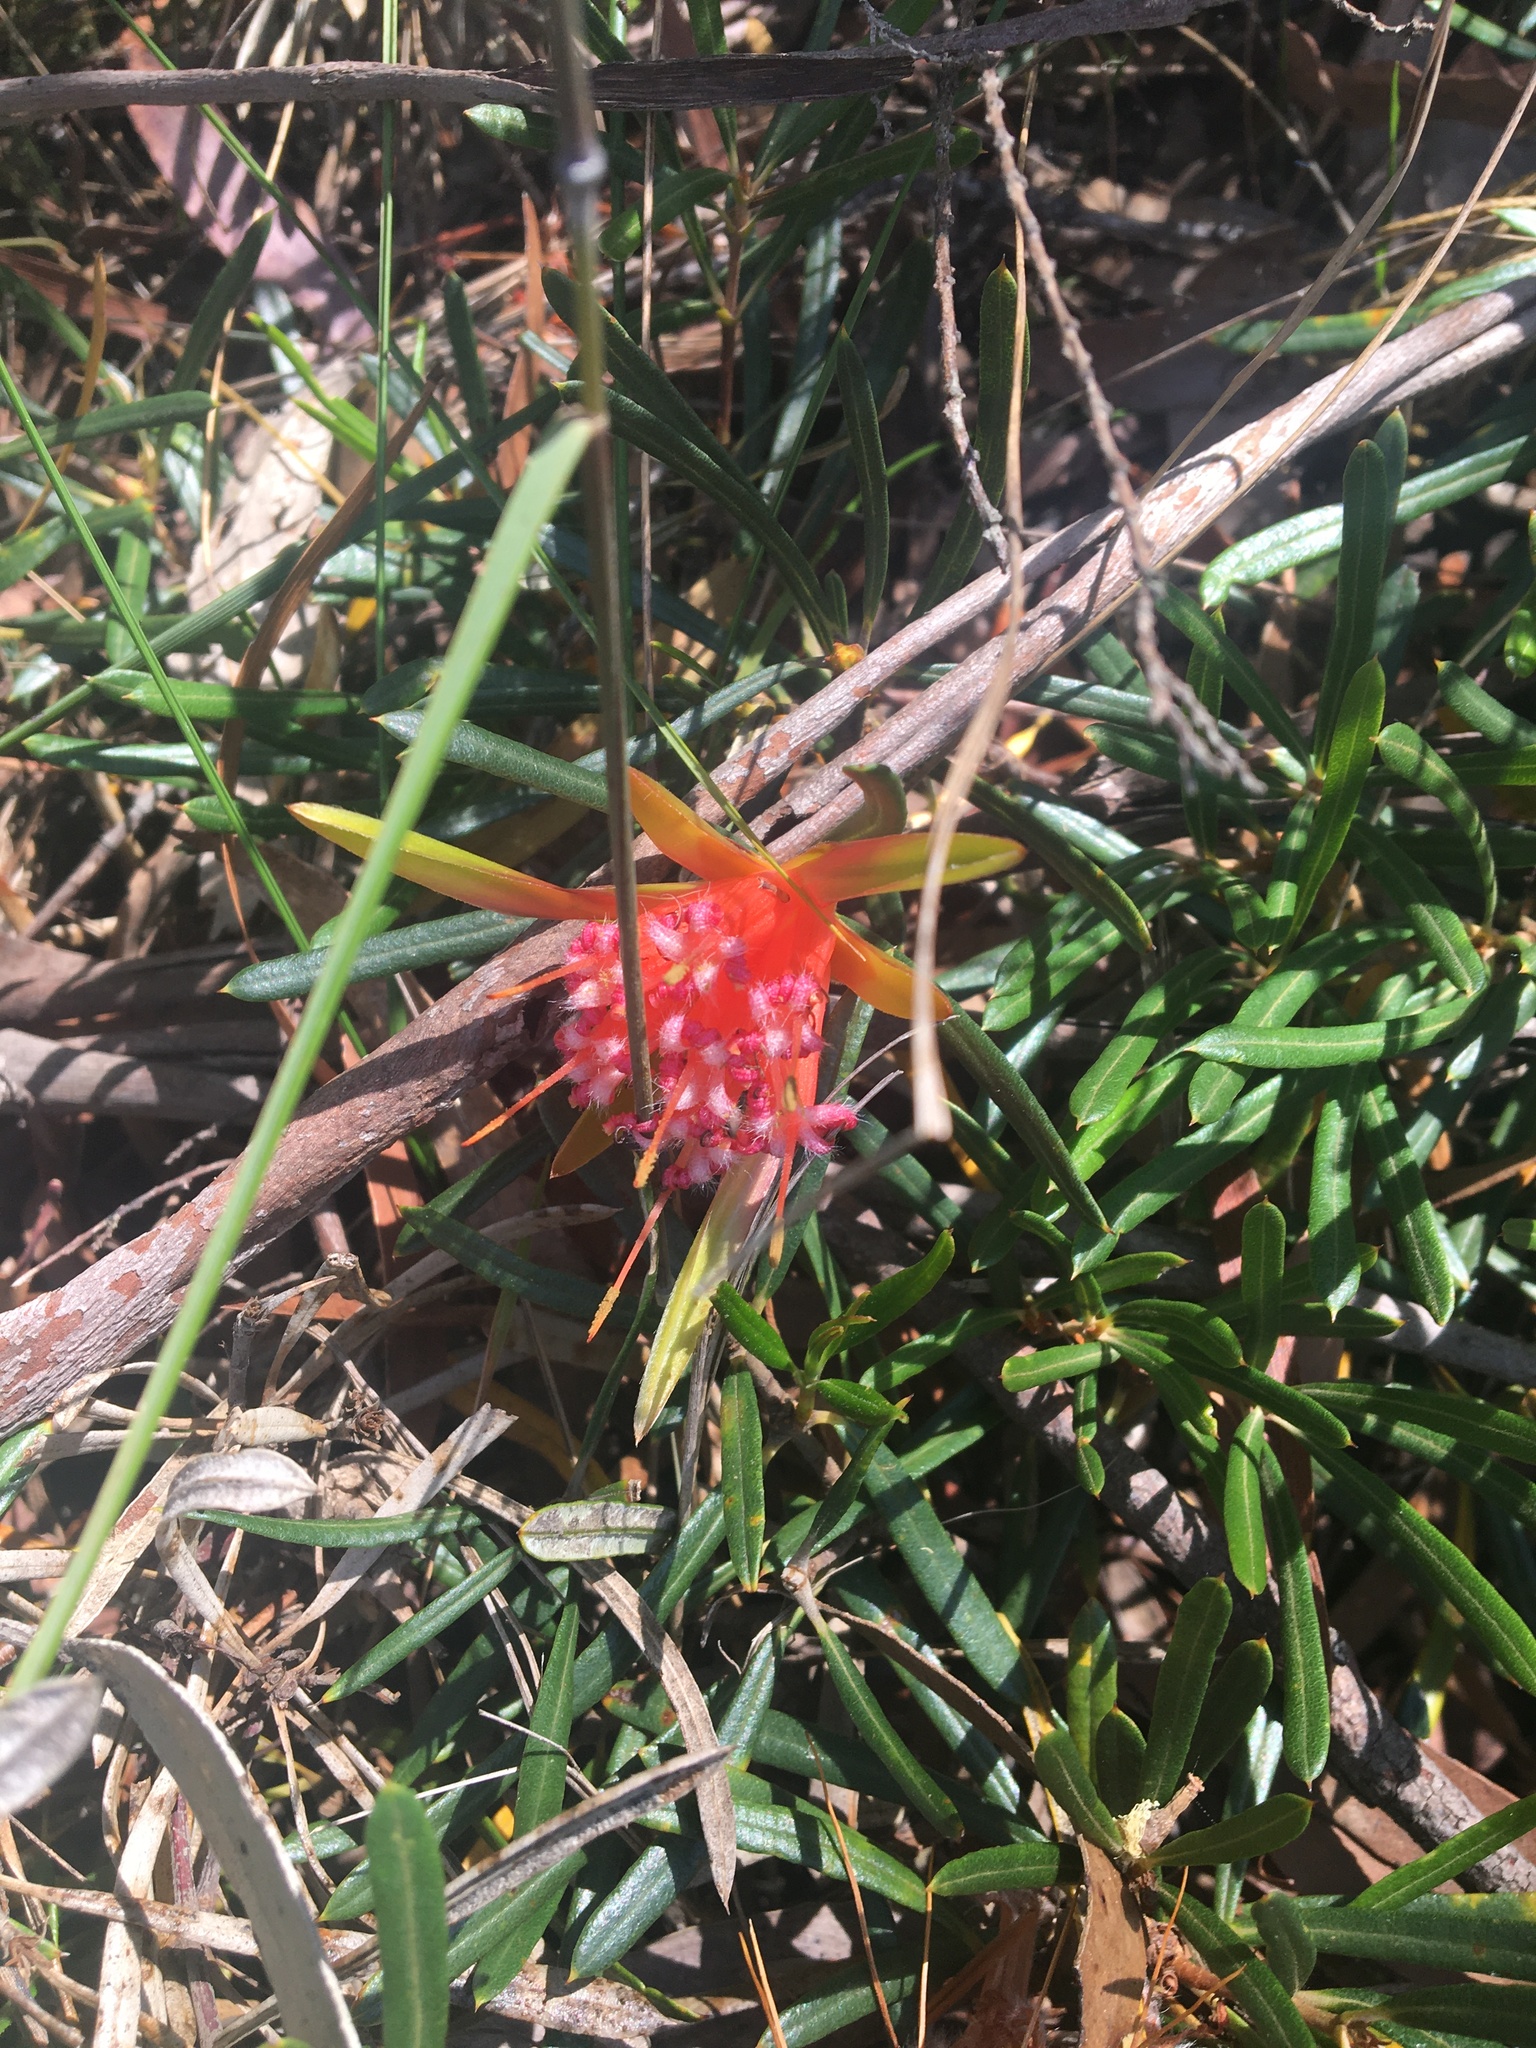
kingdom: Plantae
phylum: Tracheophyta
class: Magnoliopsida
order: Proteales
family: Proteaceae
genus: Lambertia
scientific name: Lambertia formosa
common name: Mountain-devil
